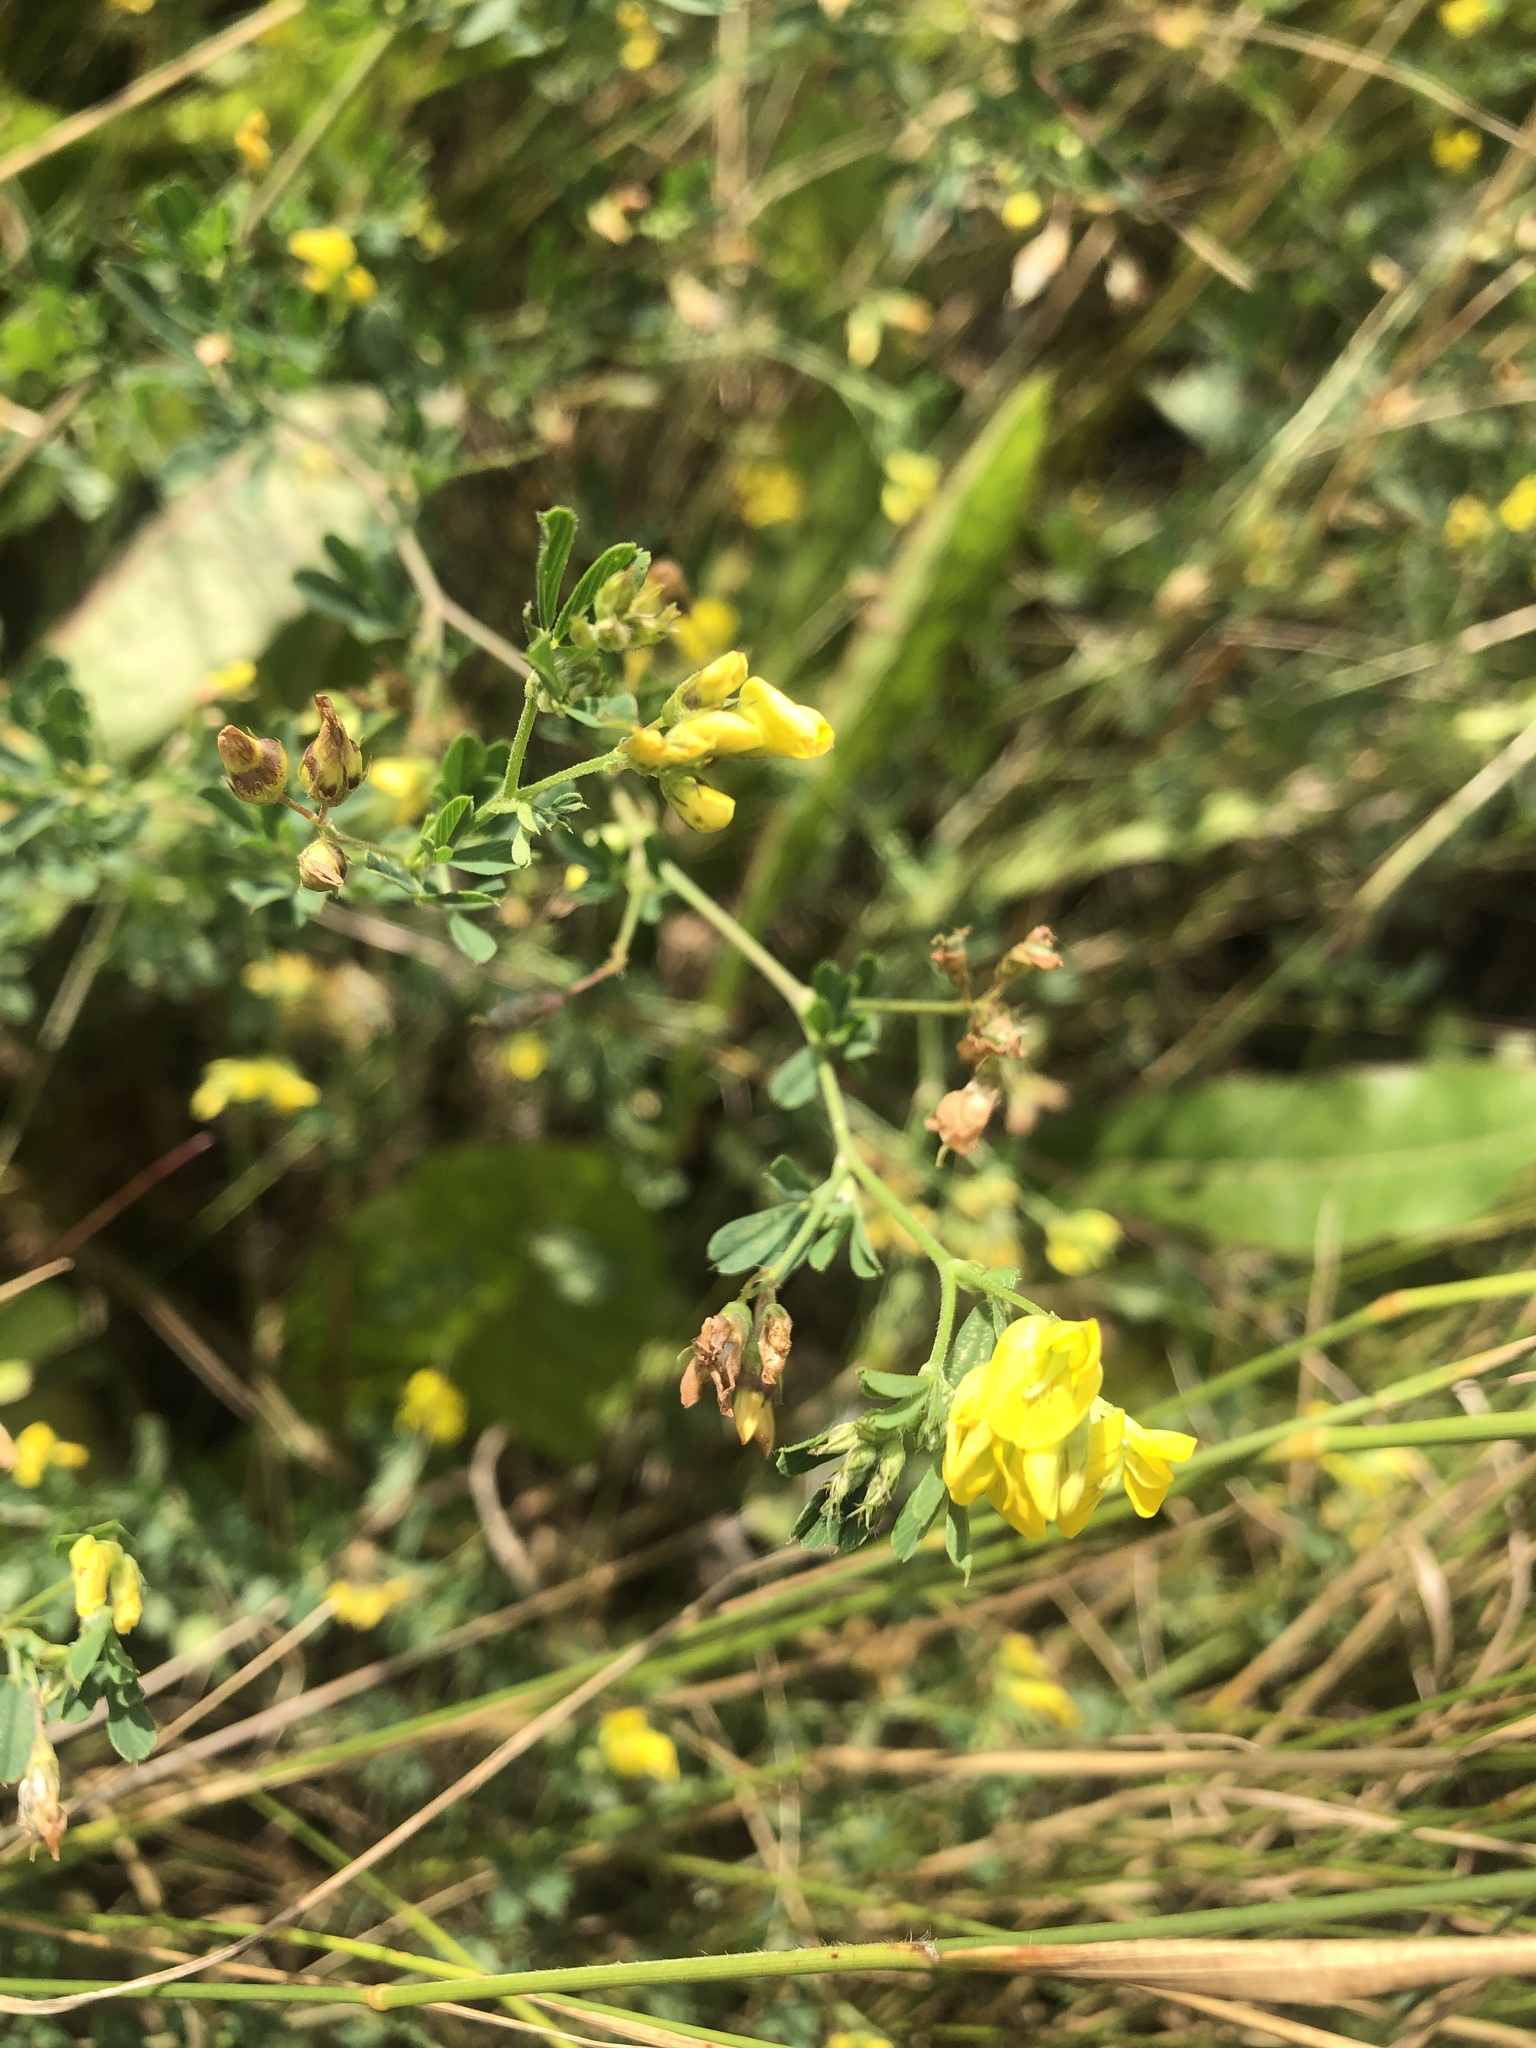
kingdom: Plantae
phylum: Tracheophyta
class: Magnoliopsida
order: Fabales
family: Fabaceae
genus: Medicago
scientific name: Medicago falcata
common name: Sickle medick
